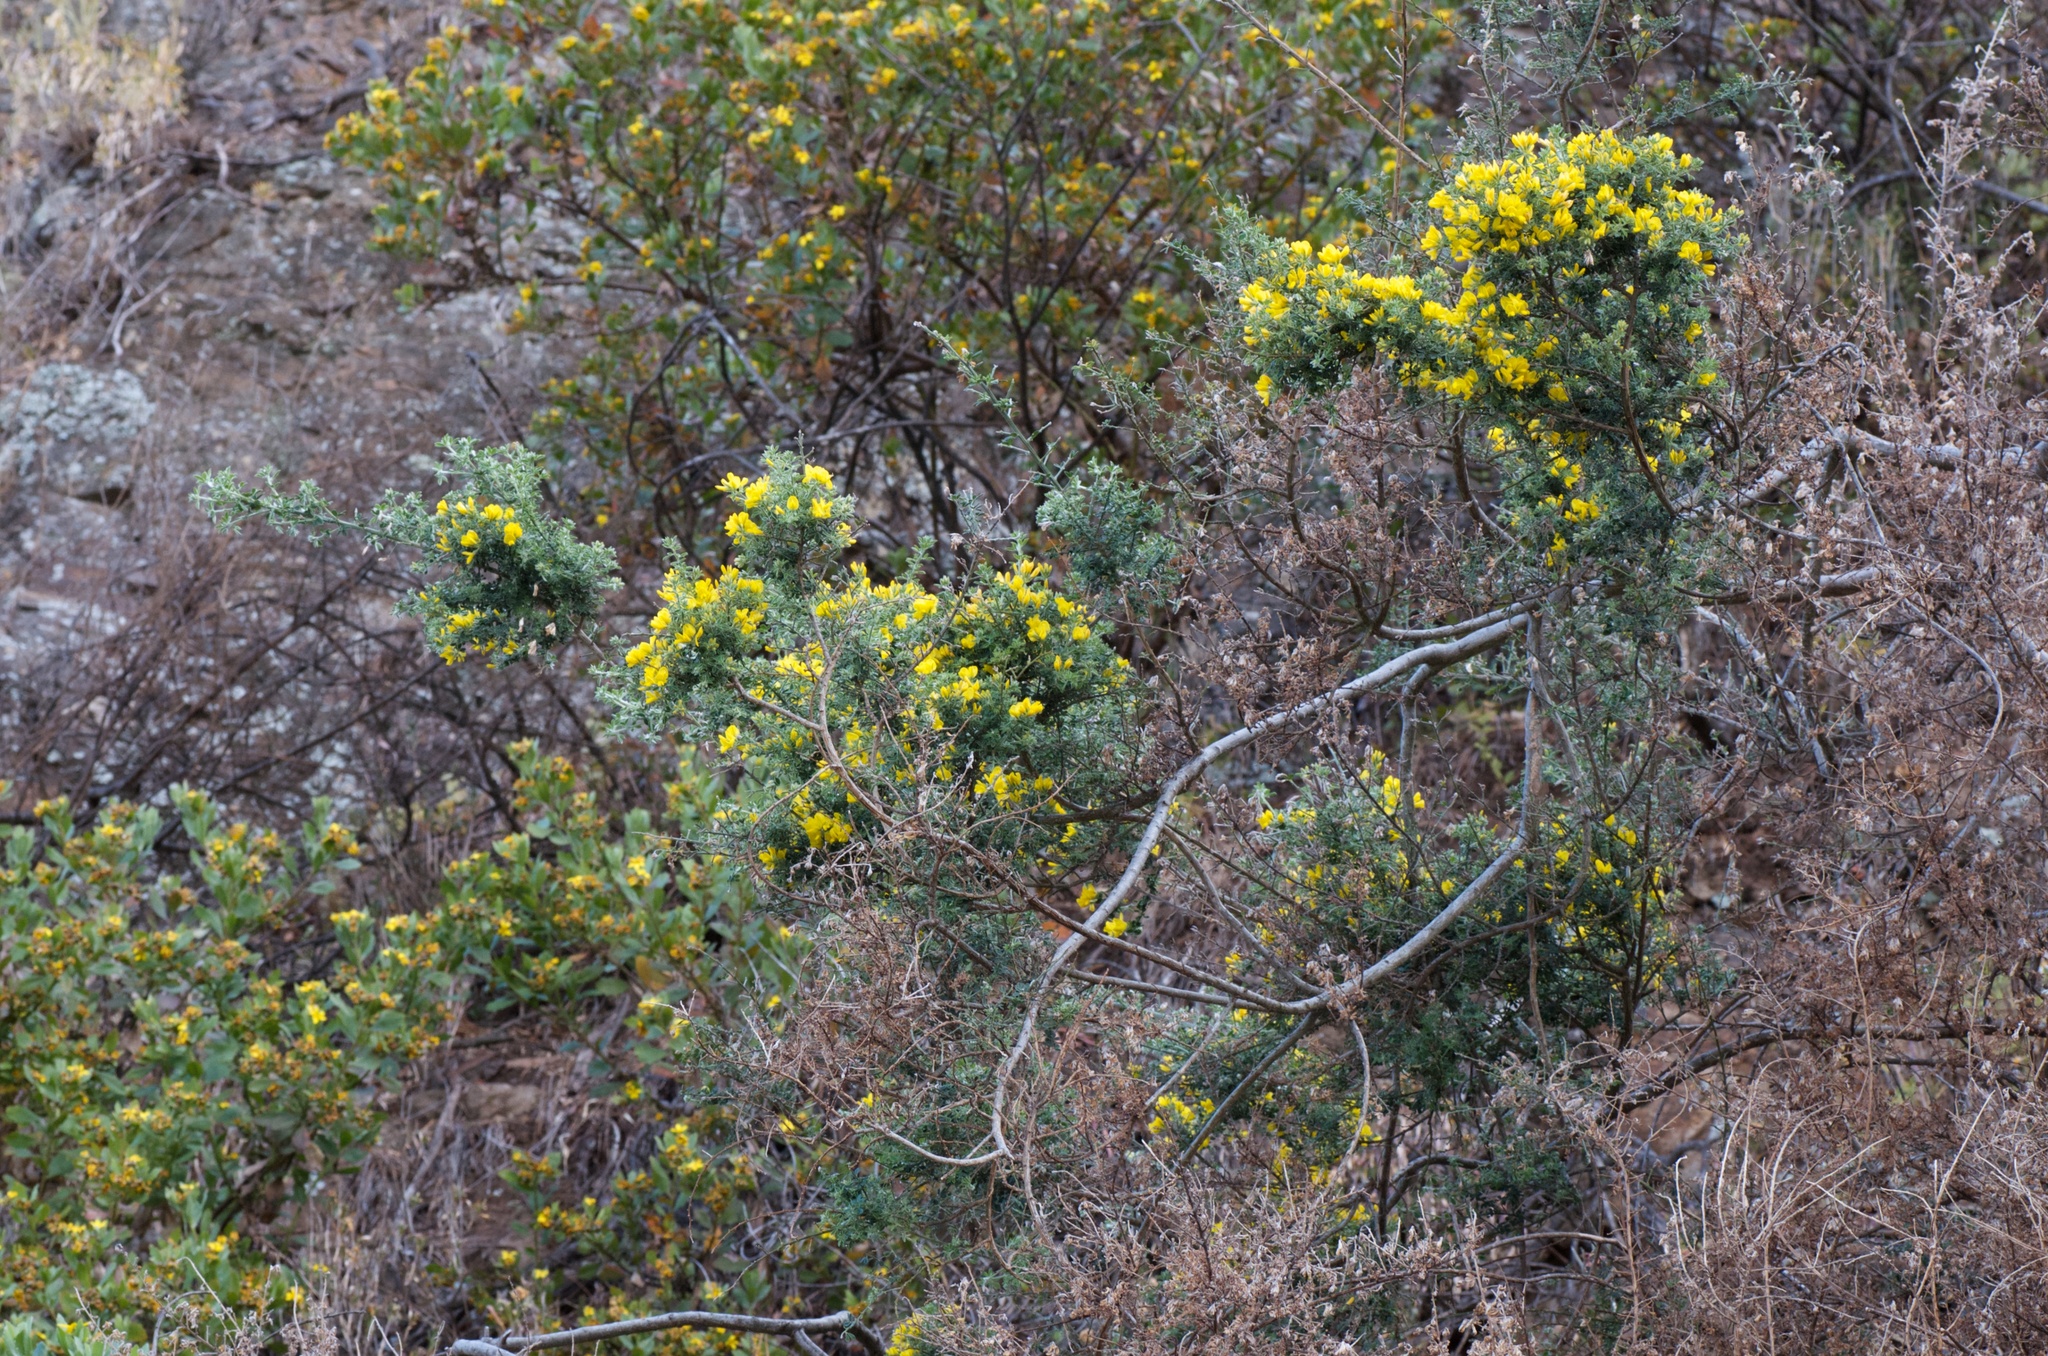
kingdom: Plantae
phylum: Tracheophyta
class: Magnoliopsida
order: Fabales
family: Fabaceae
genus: Genista
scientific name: Genista monspessulana
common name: Montpellier broom
